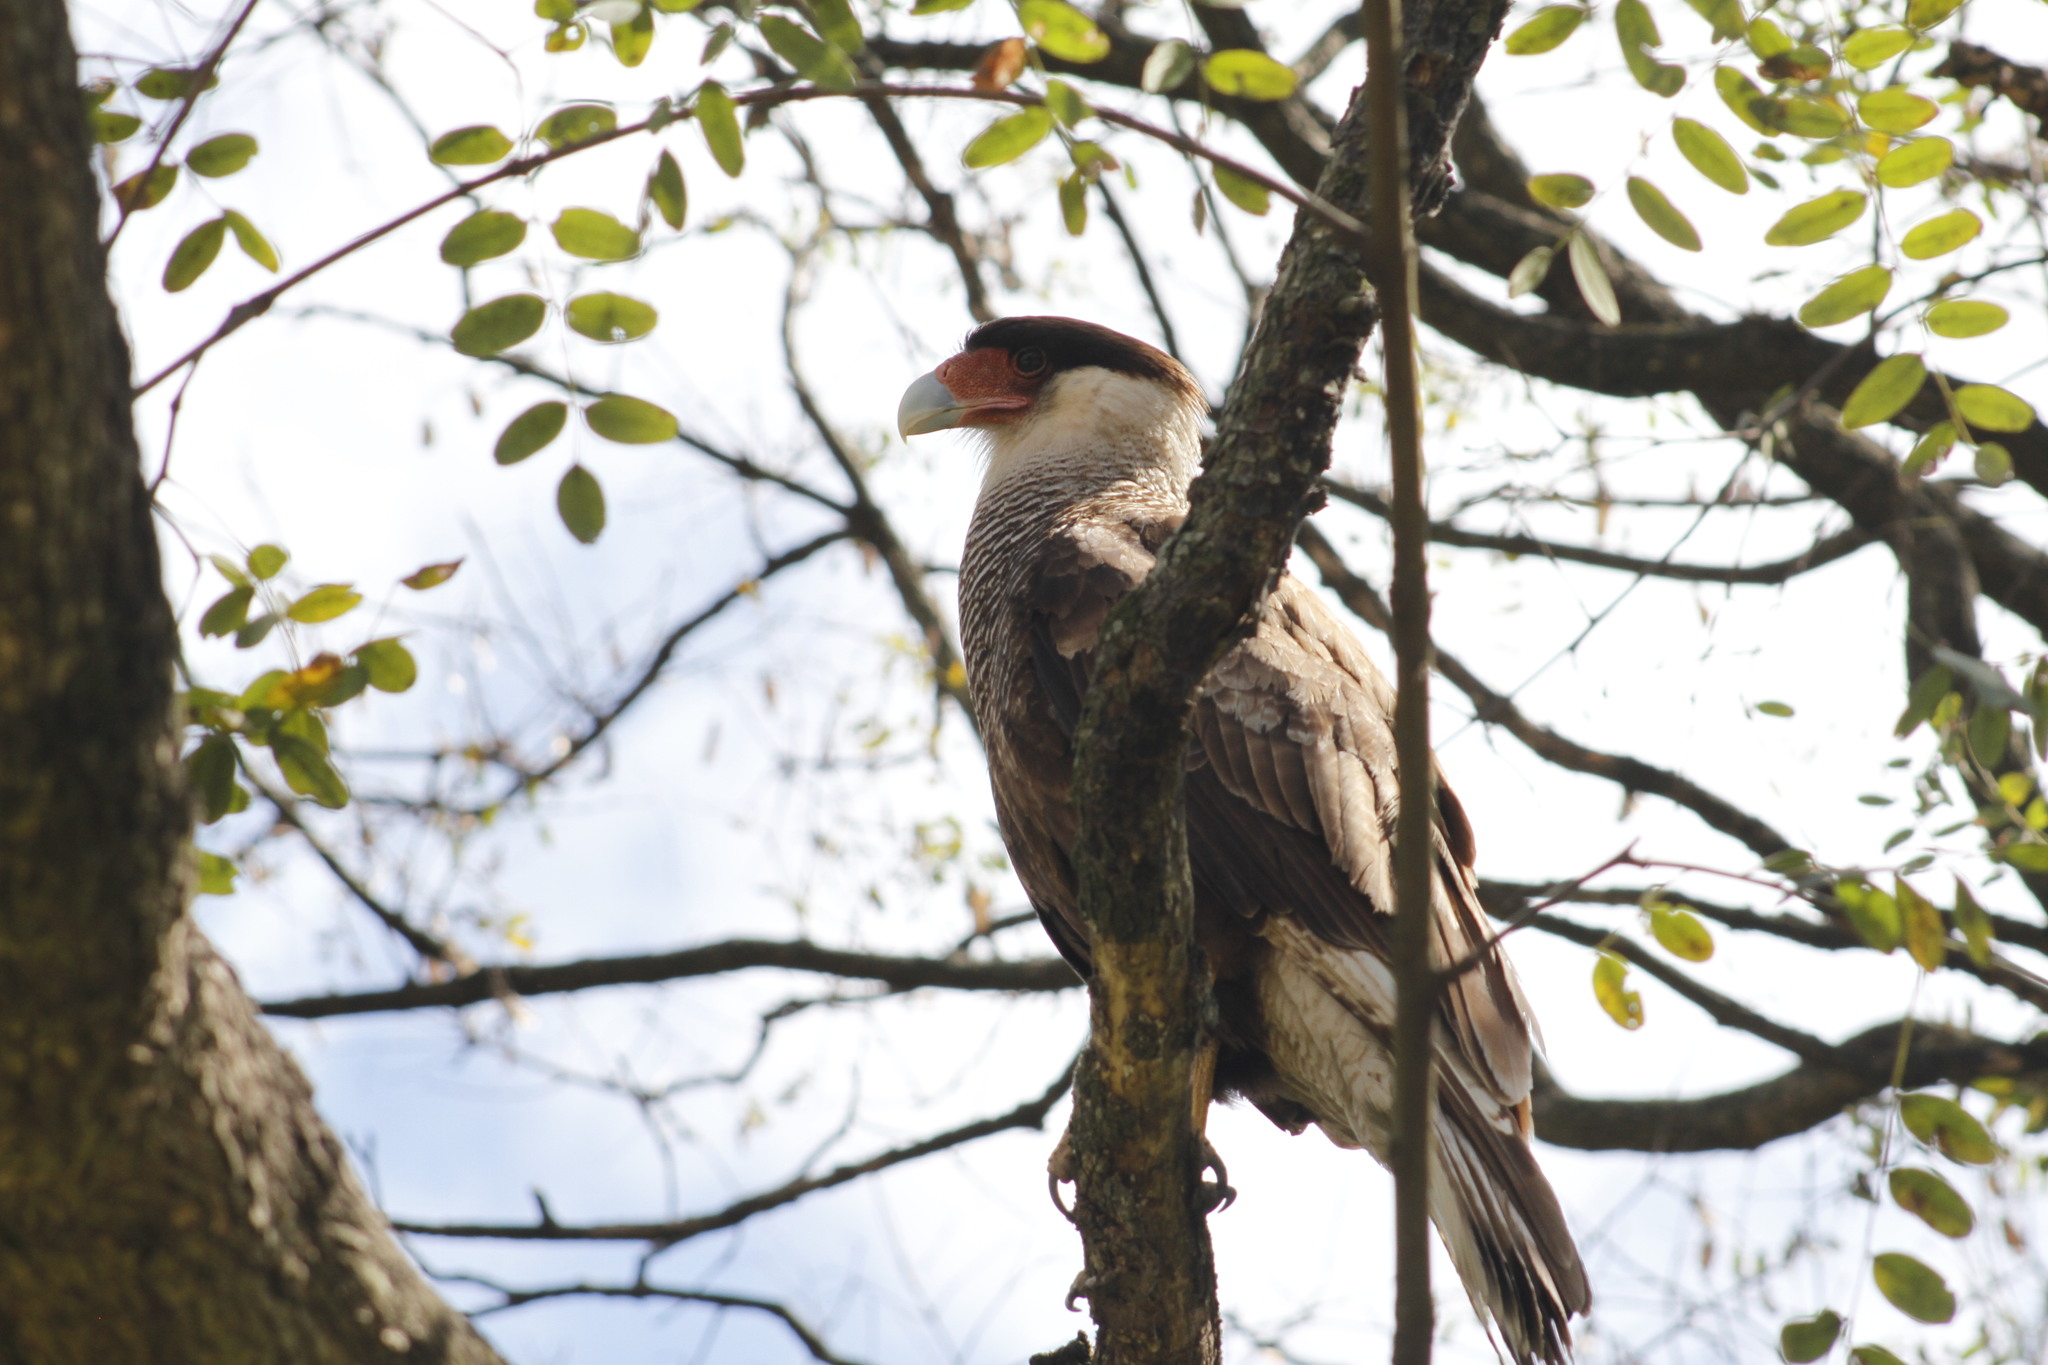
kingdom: Animalia
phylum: Chordata
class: Aves
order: Falconiformes
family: Falconidae
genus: Caracara
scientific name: Caracara plancus
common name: Southern caracara
